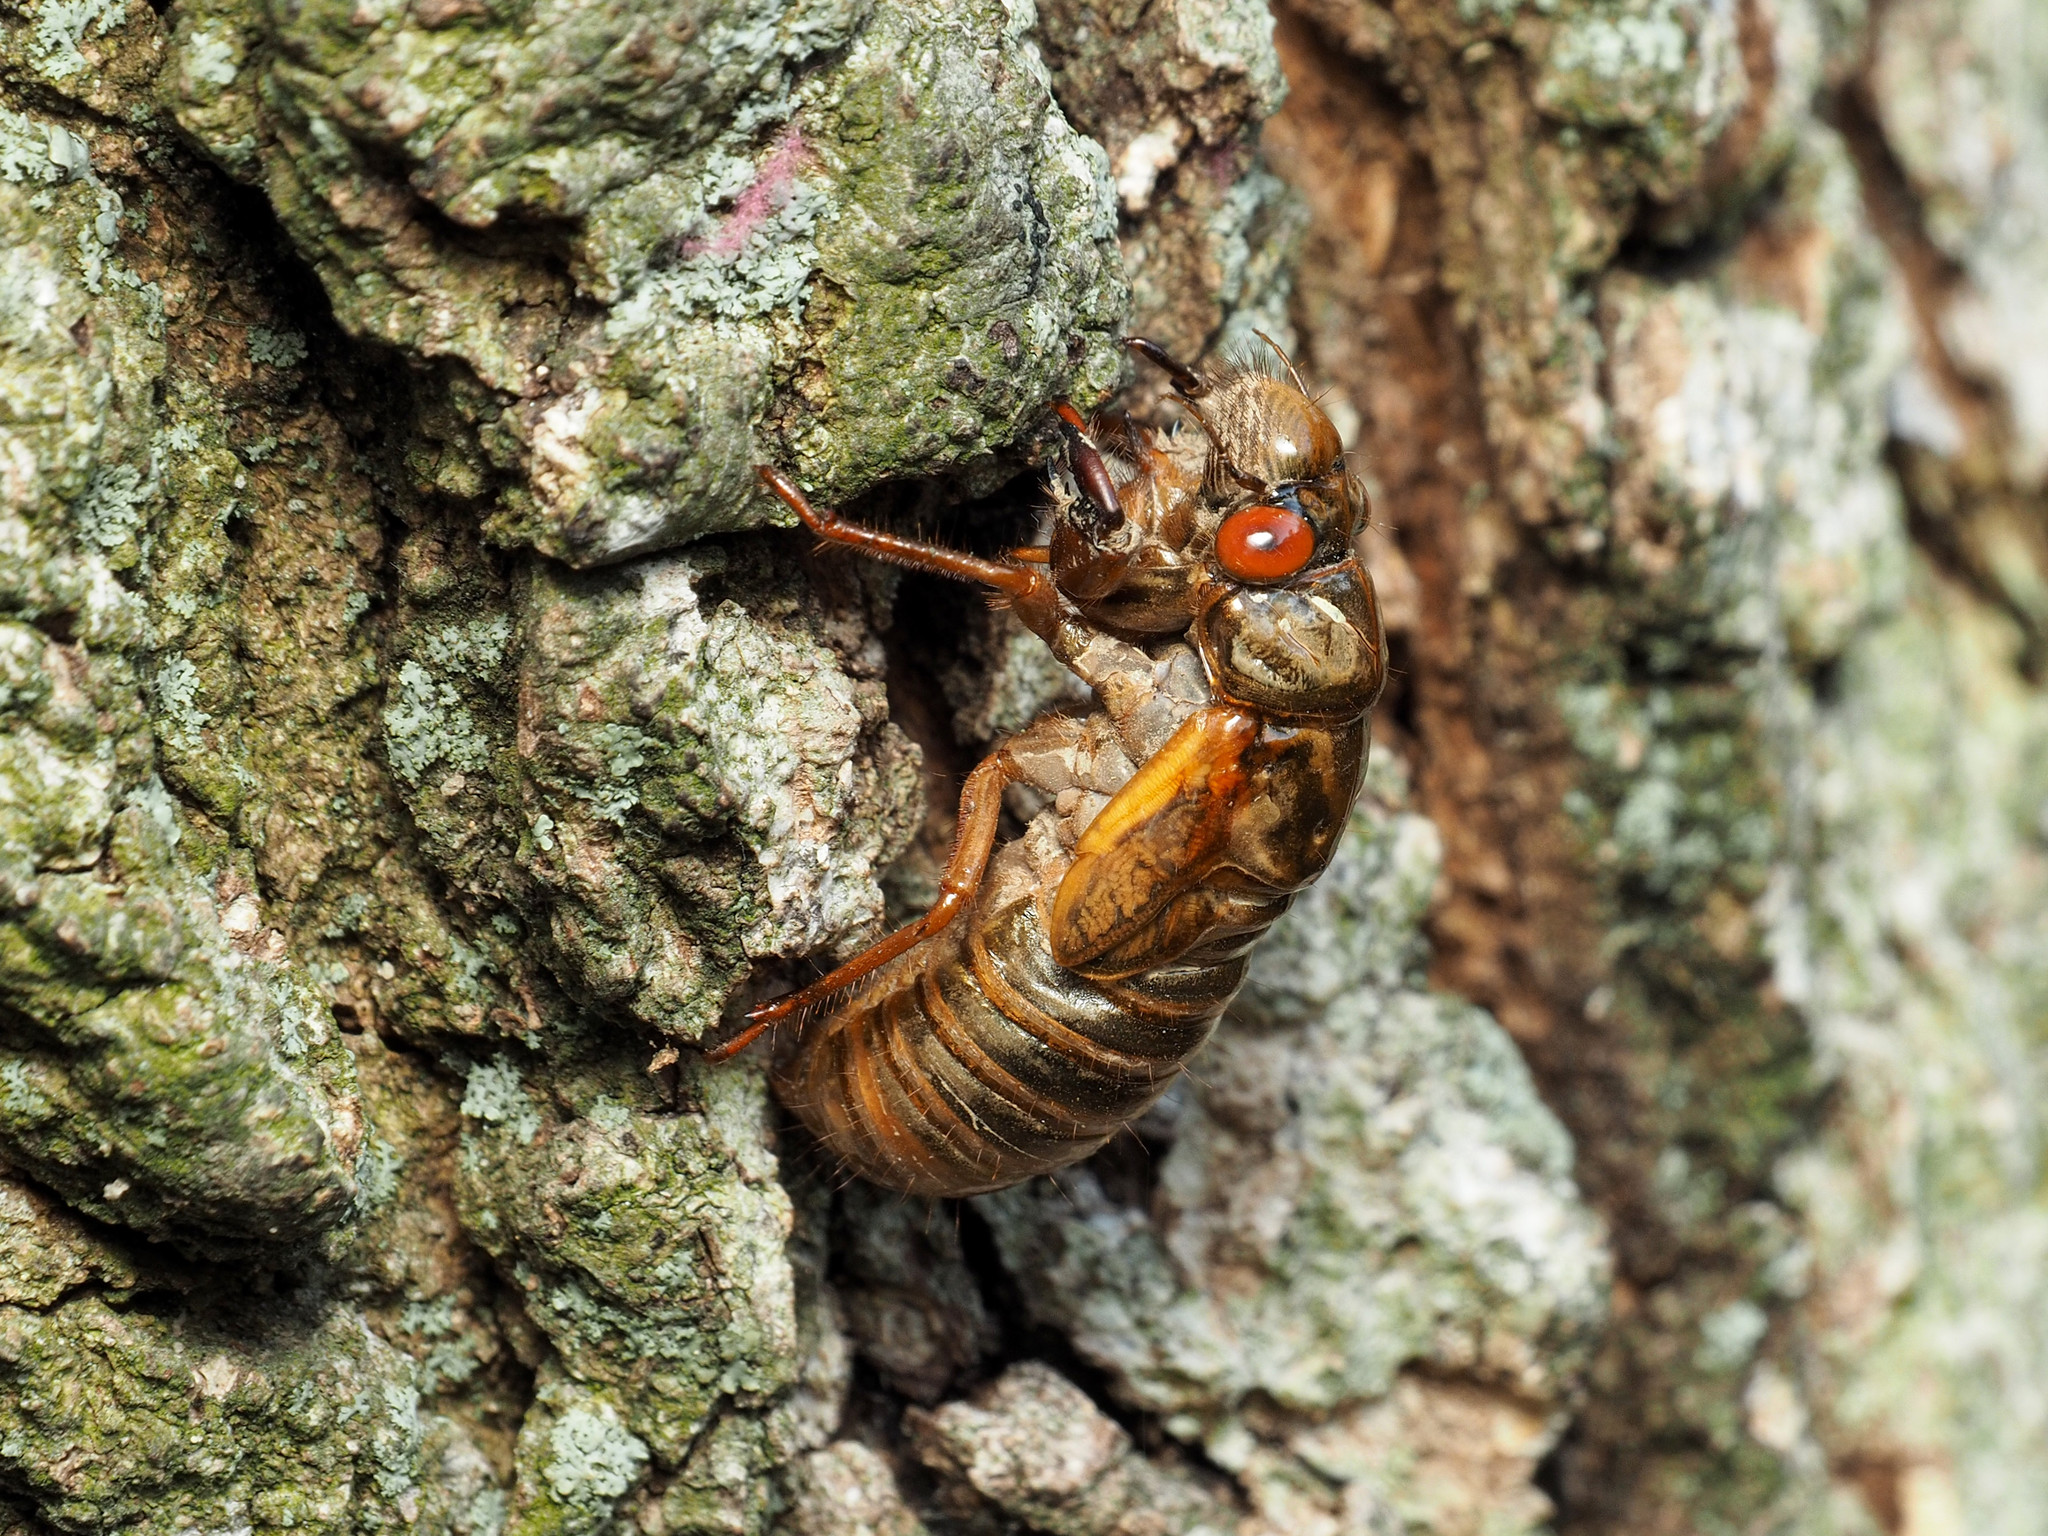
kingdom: Animalia
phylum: Arthropoda
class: Insecta
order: Hemiptera
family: Cicadidae
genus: Magicicada
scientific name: Magicicada
